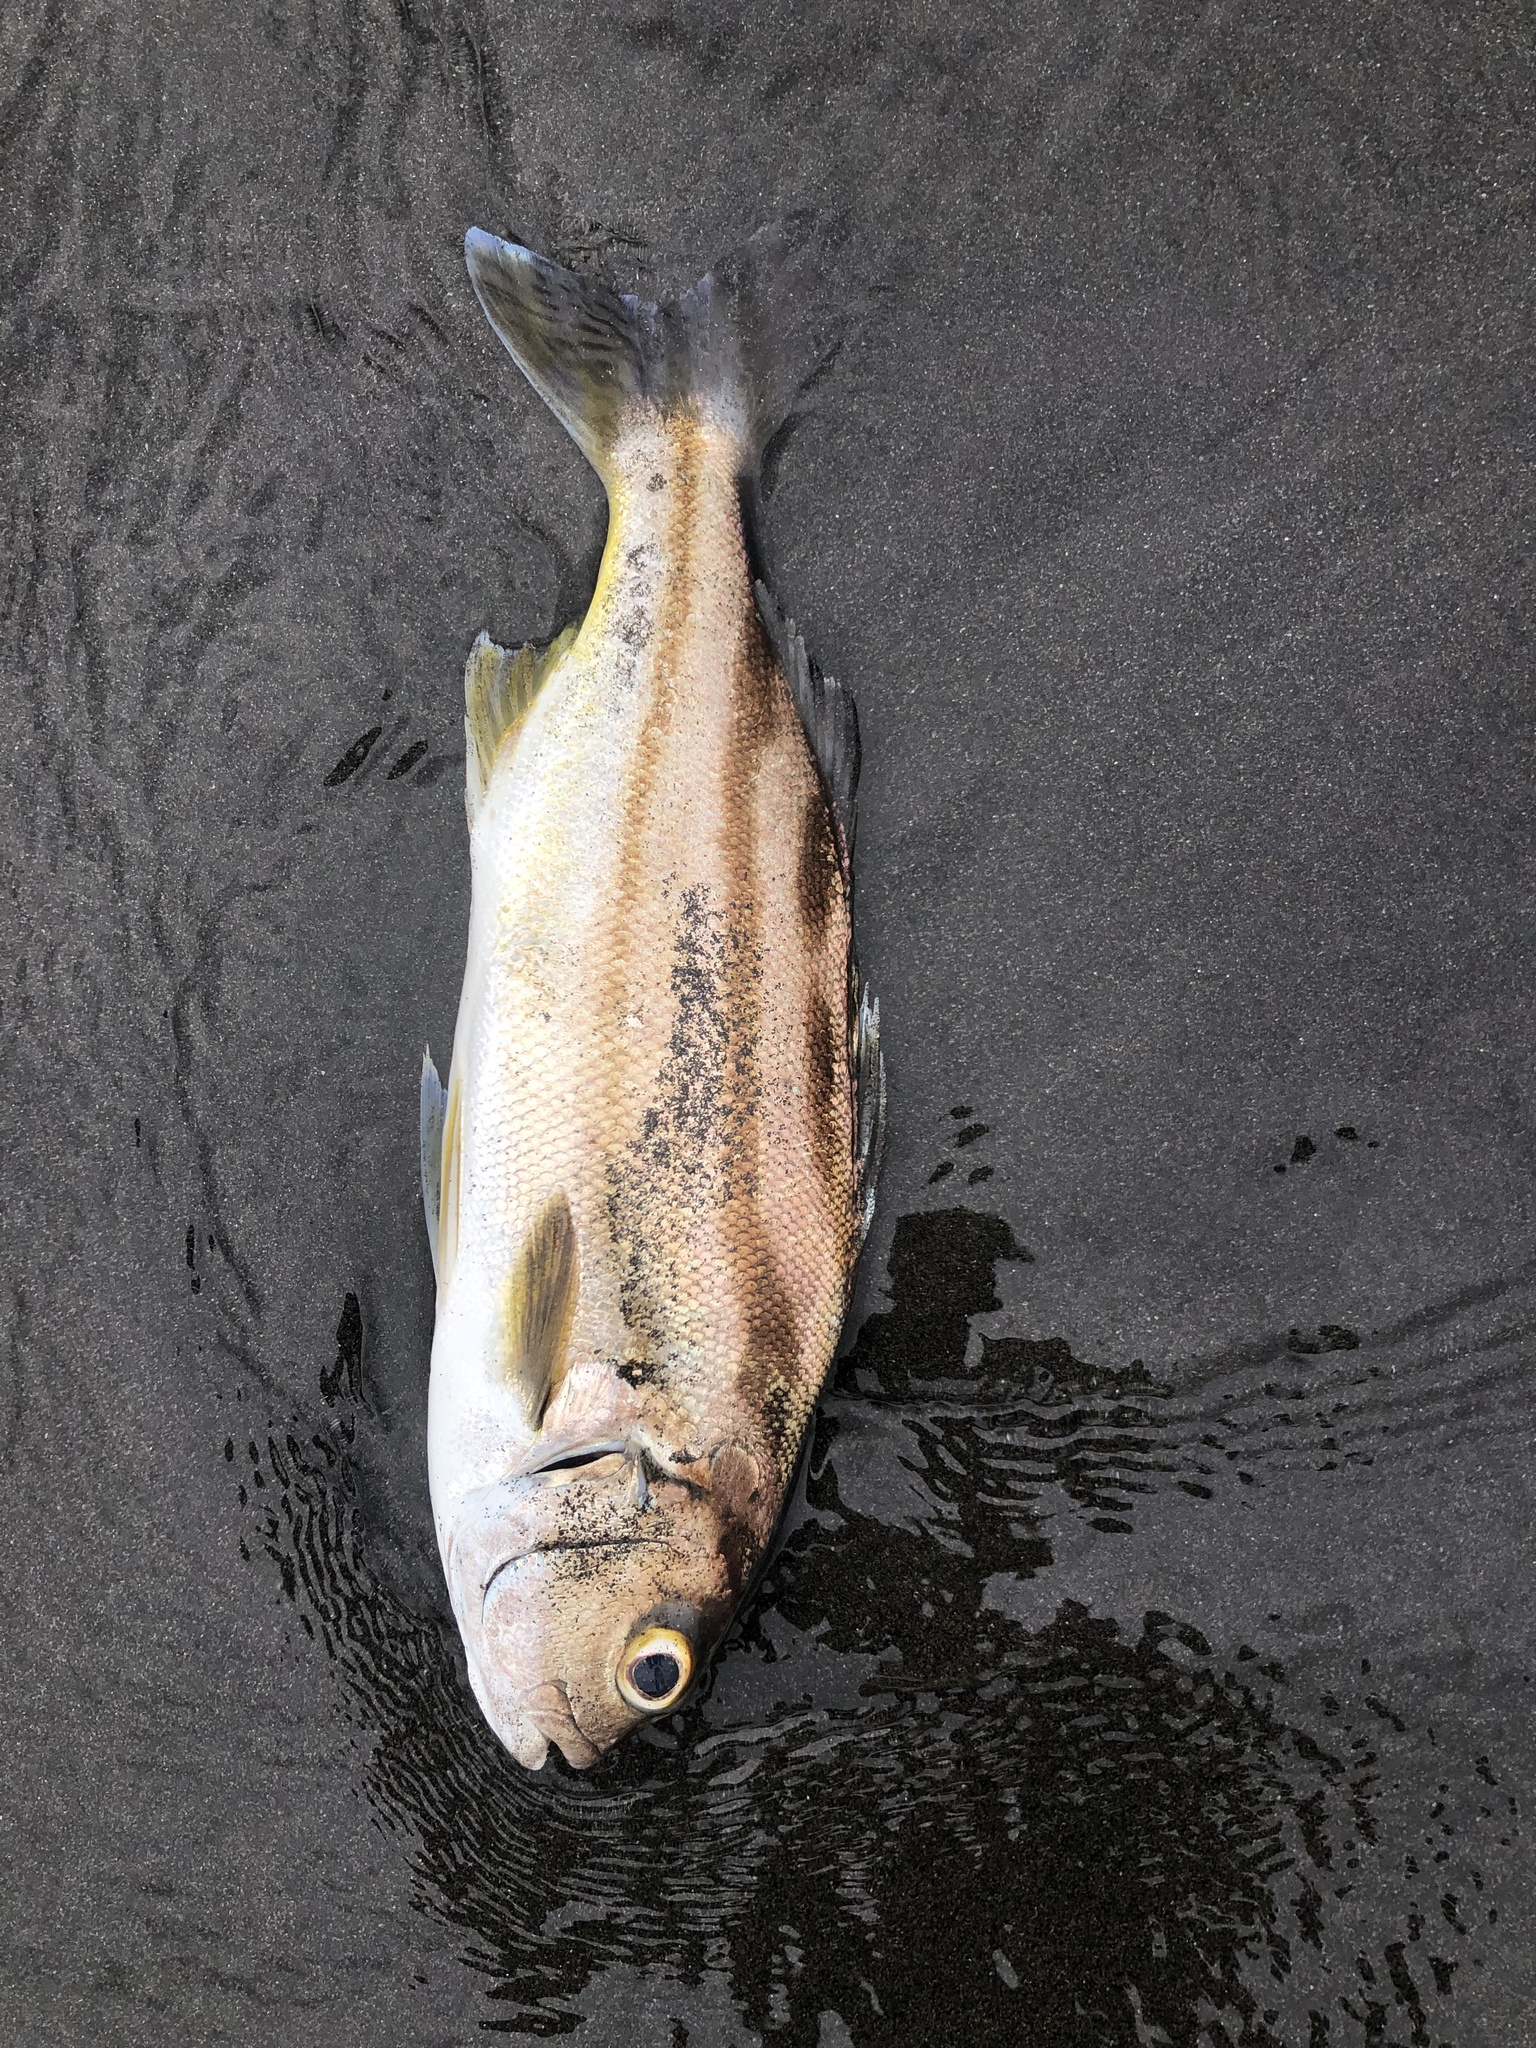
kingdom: Animalia
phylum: Chordata
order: Perciformes
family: Terapontidae
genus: Terapon
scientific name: Terapon jarbua
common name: Jarbua terapon
